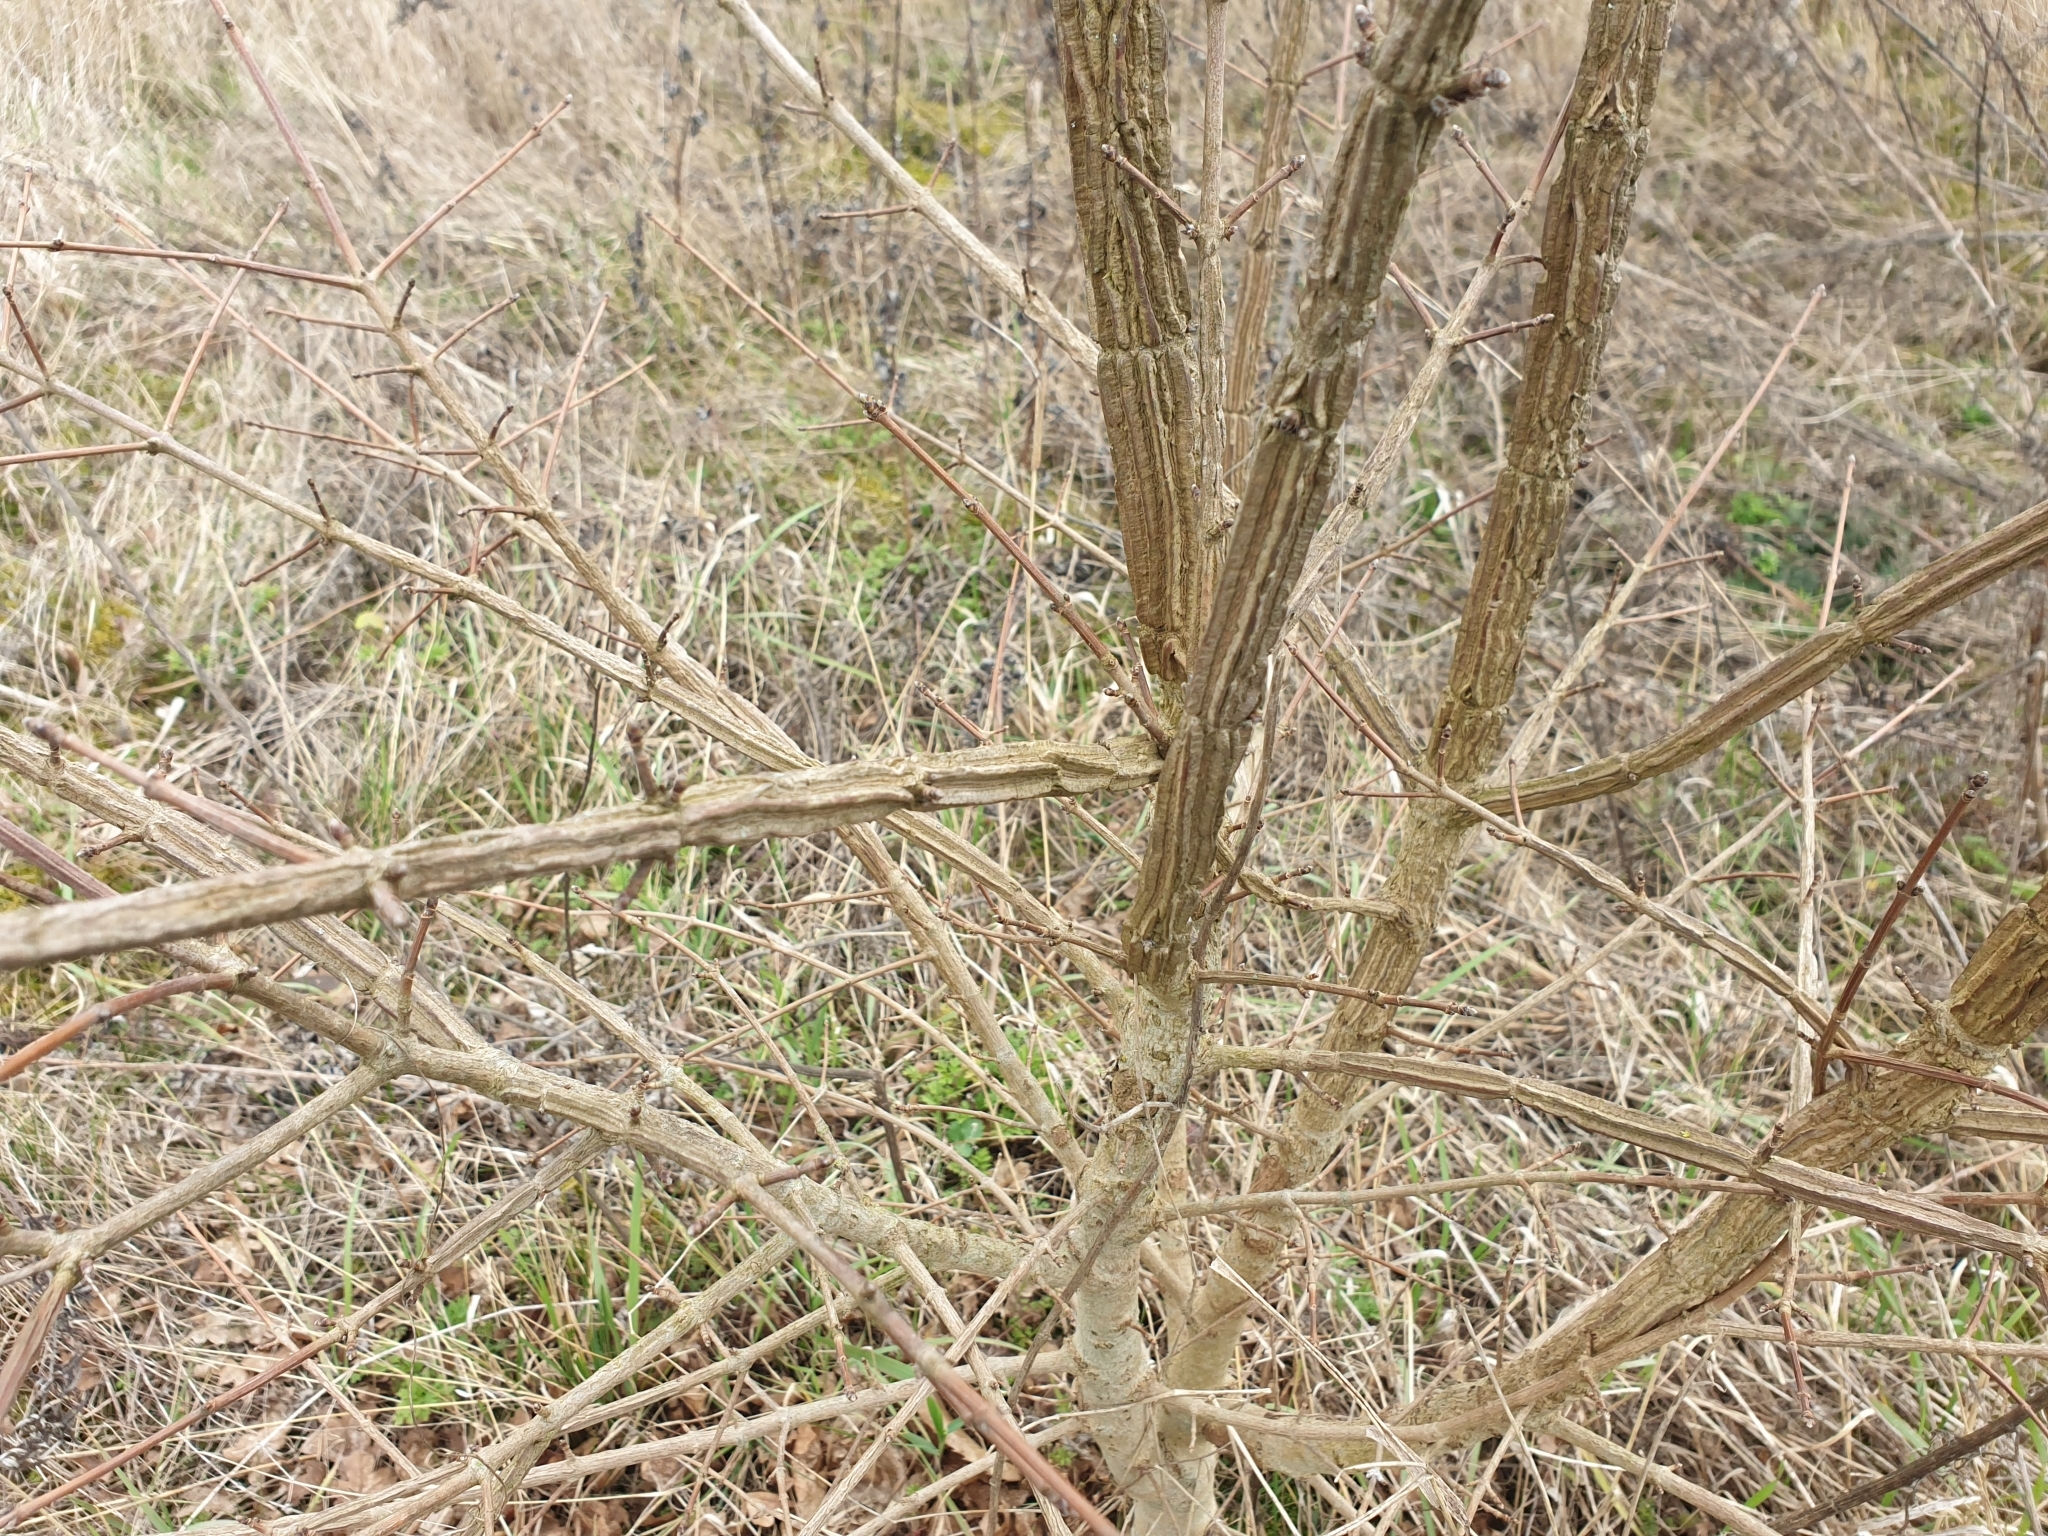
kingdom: Plantae
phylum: Tracheophyta
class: Magnoliopsida
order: Sapindales
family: Sapindaceae
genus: Acer
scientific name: Acer campestre
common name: Field maple
